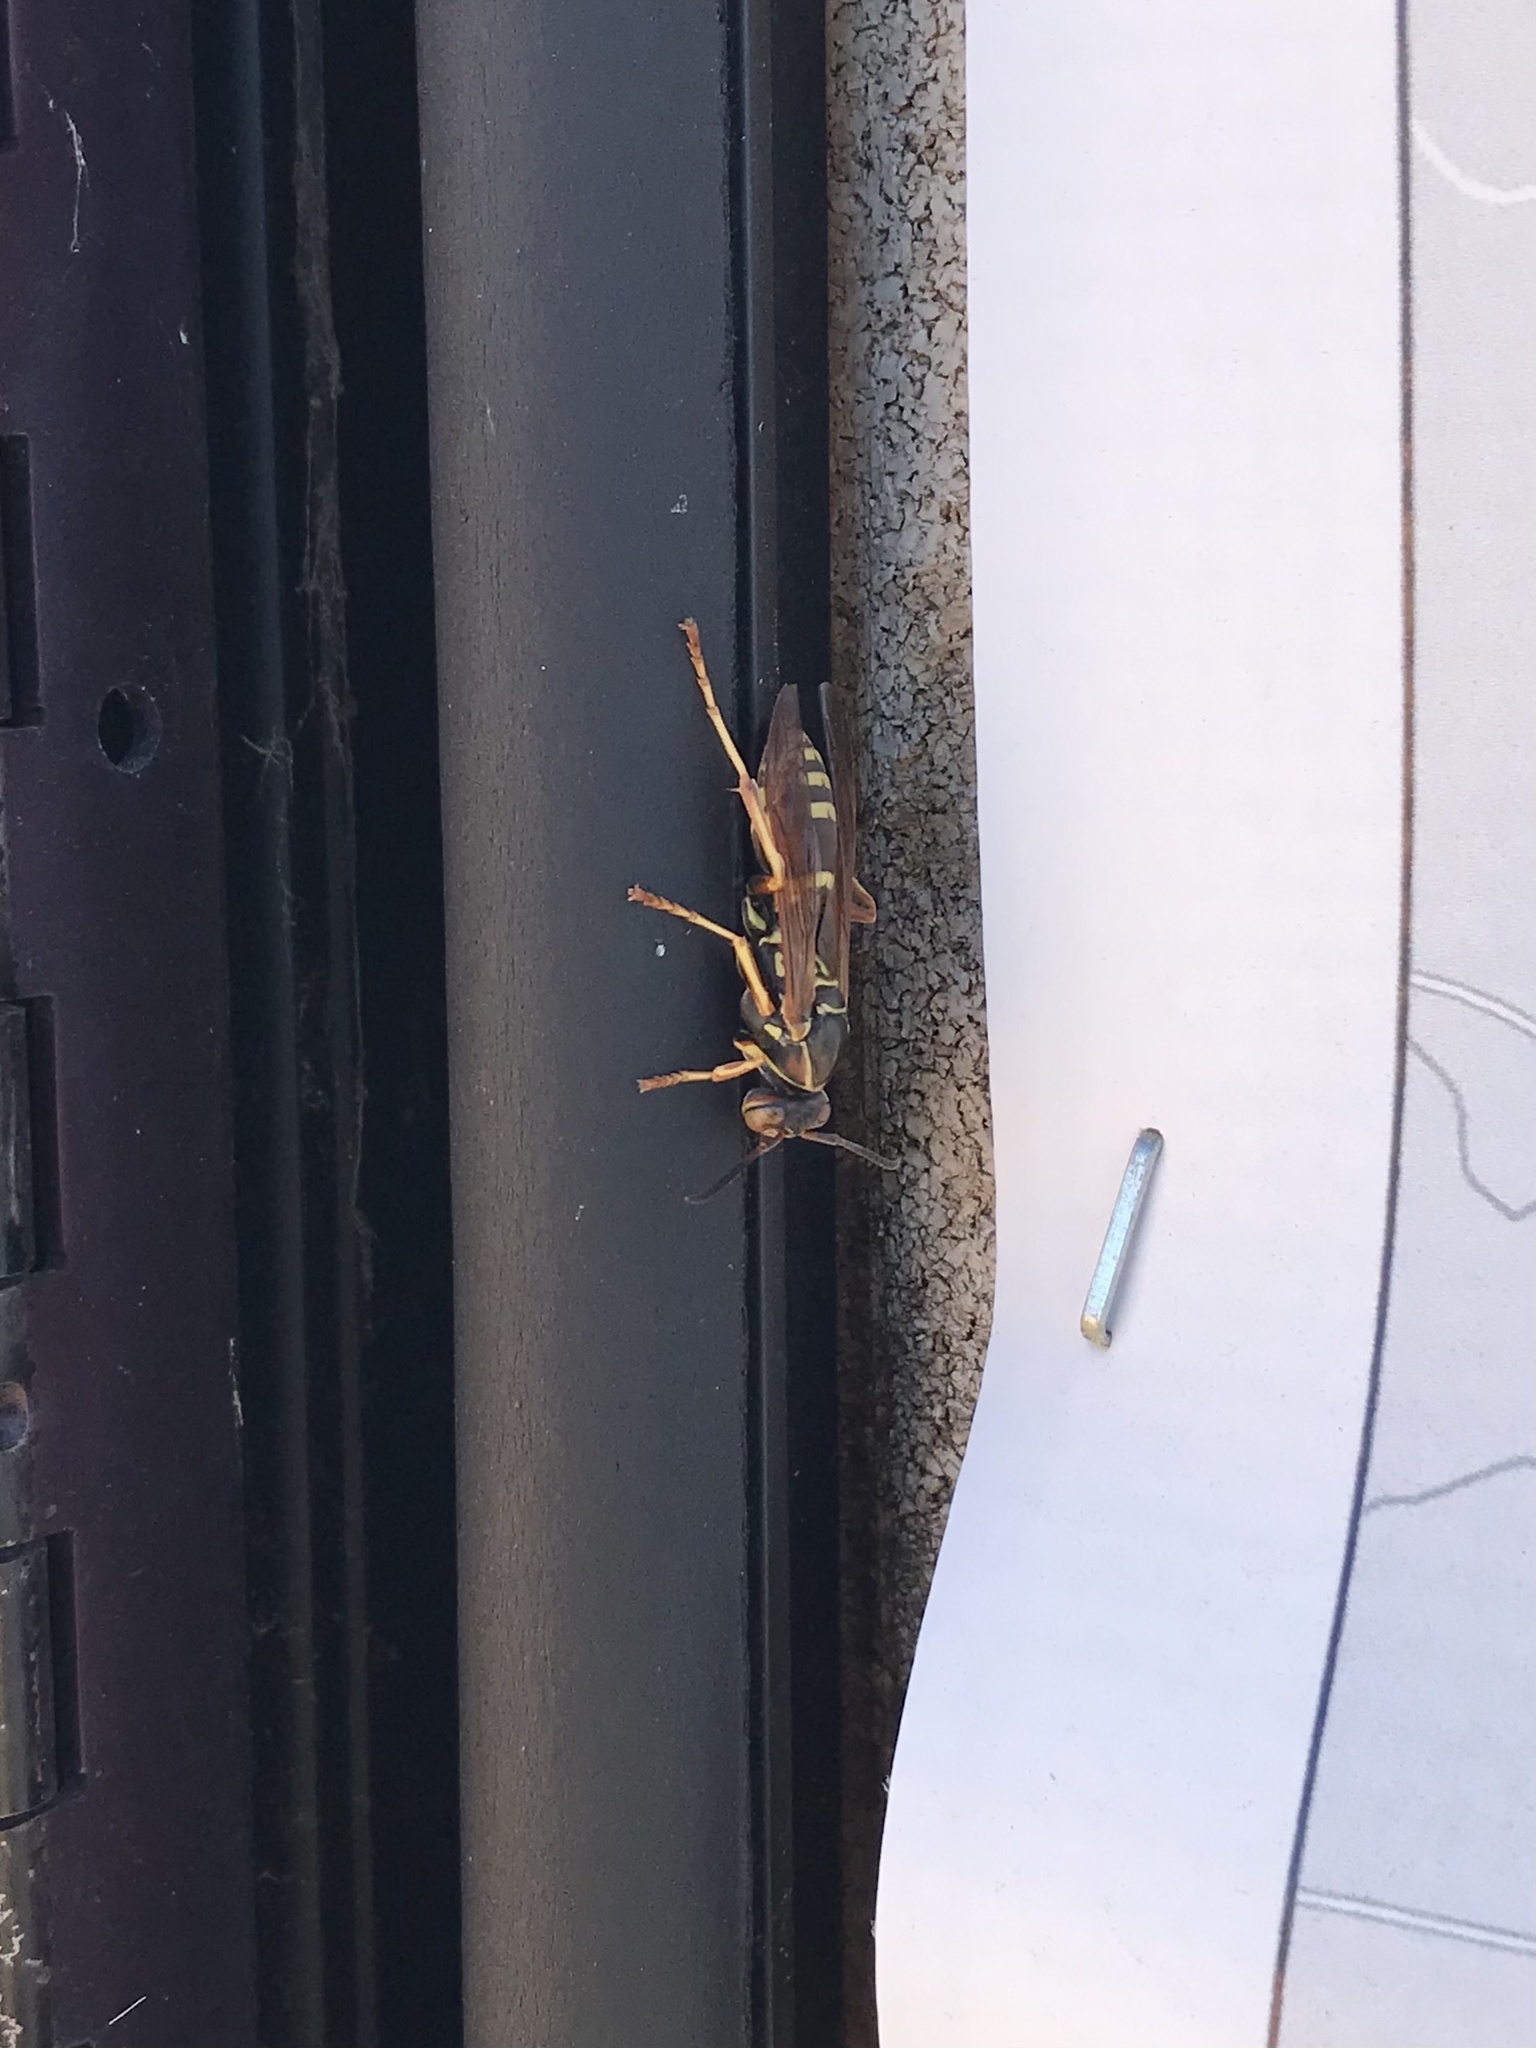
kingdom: Animalia
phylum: Arthropoda
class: Insecta
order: Hymenoptera
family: Eumenidae
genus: Polistes
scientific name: Polistes fuscatus
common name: Dark paper wasp
